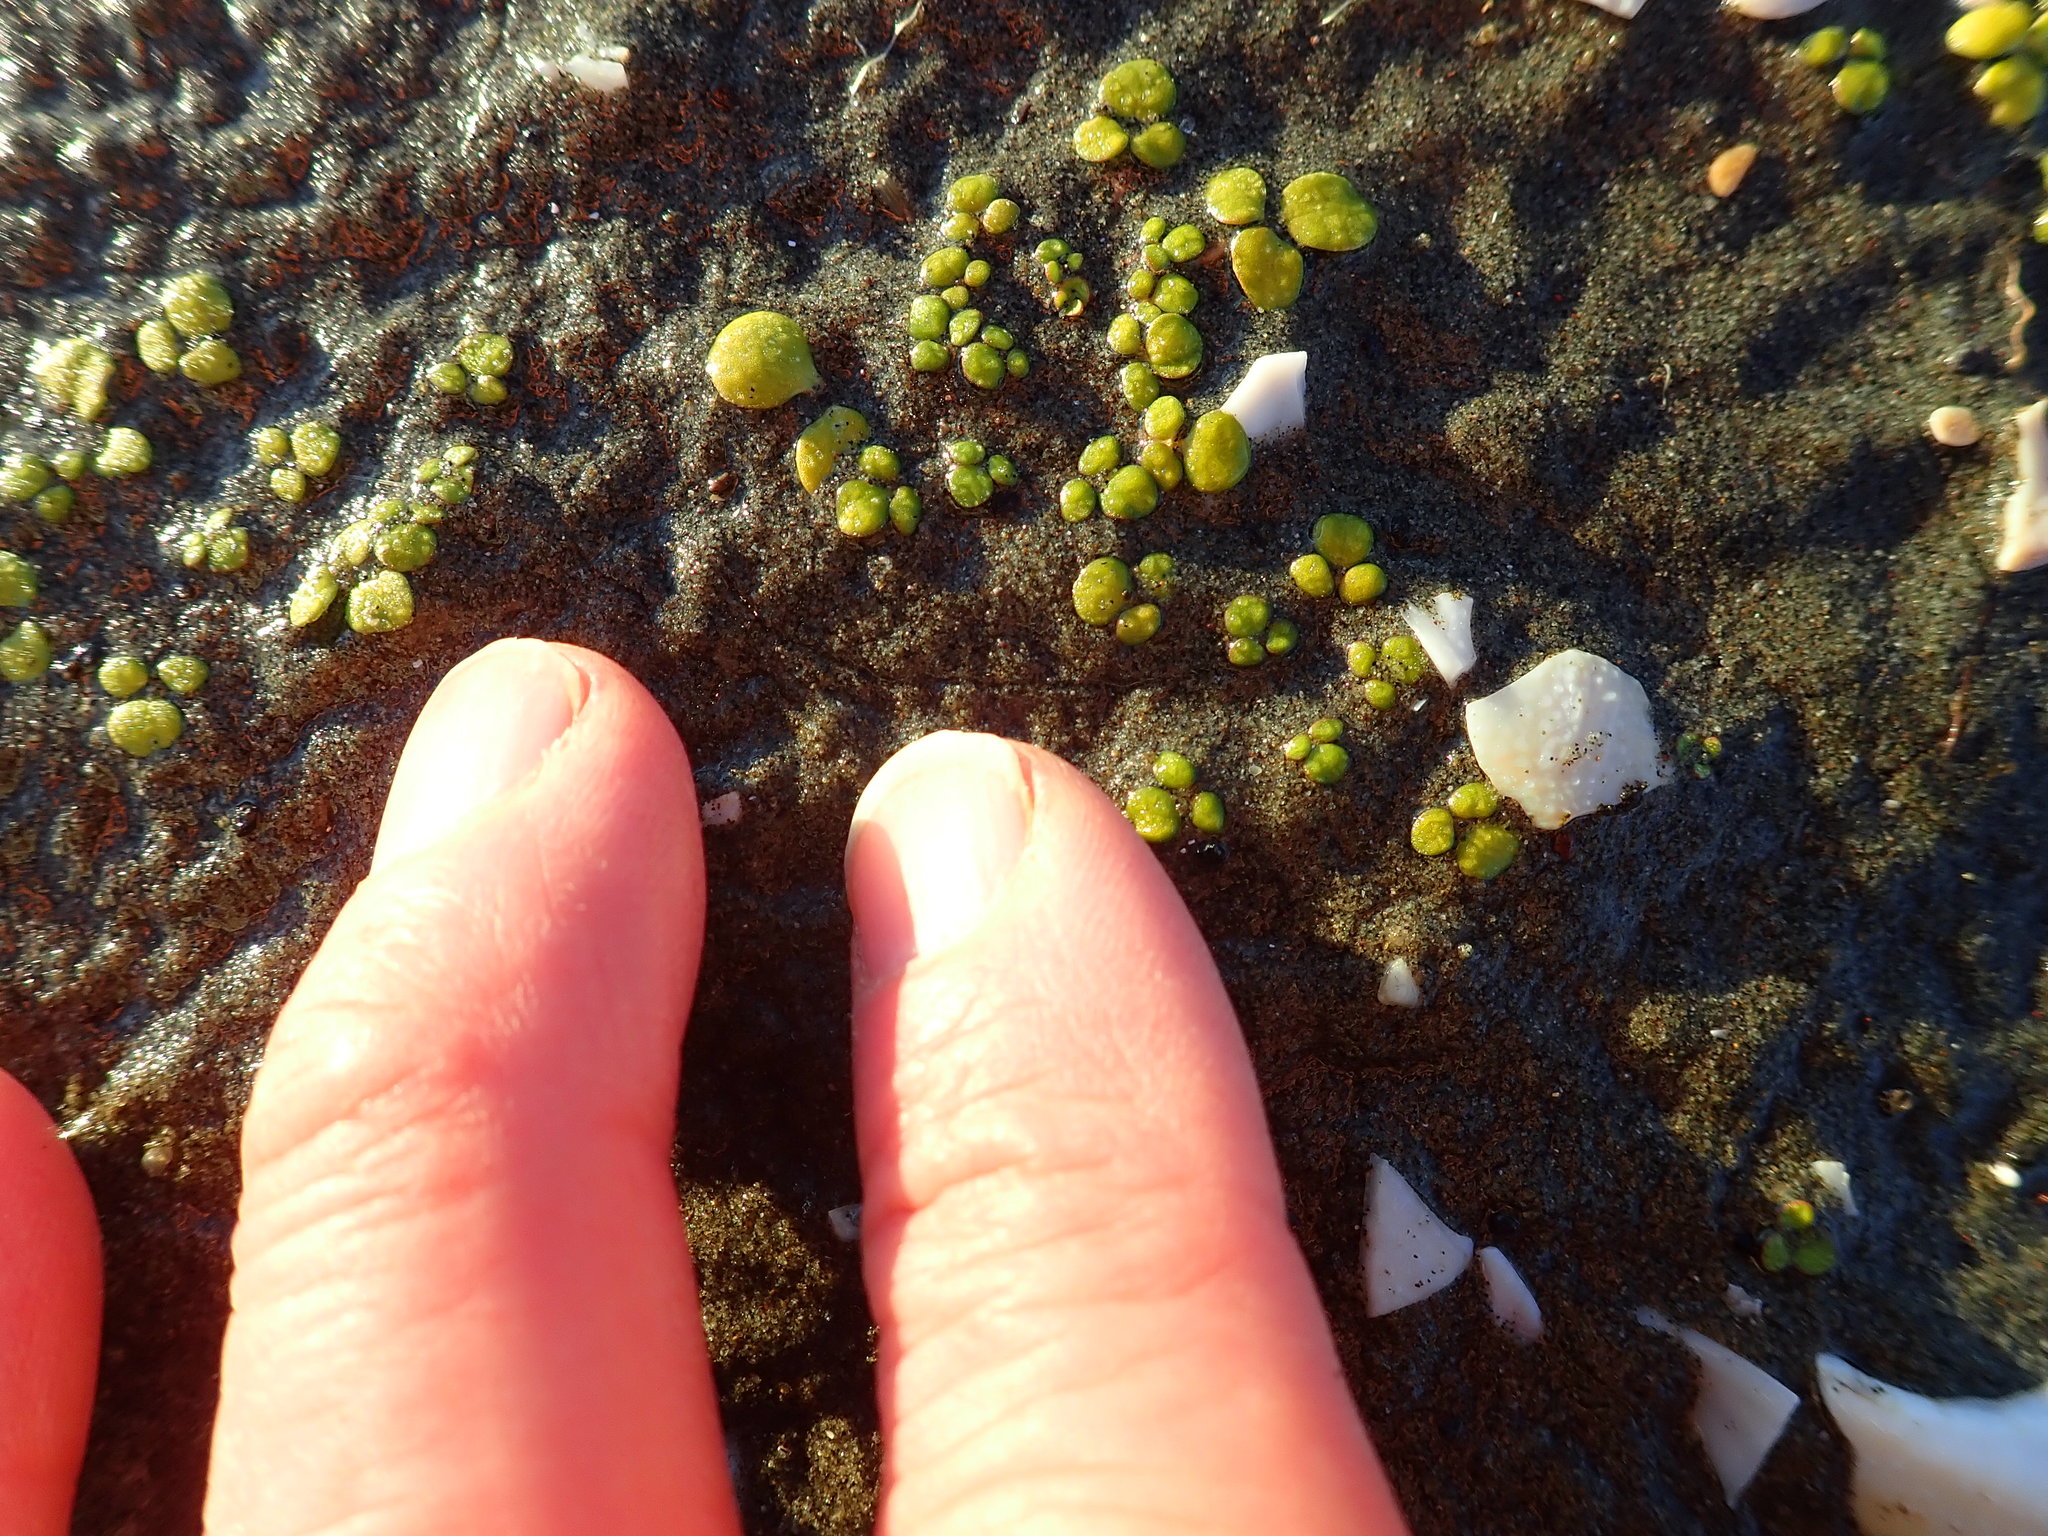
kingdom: Plantae
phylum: Tracheophyta
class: Magnoliopsida
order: Ranunculales
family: Ranunculaceae
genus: Ranunculus
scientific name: Ranunculus acaulis
